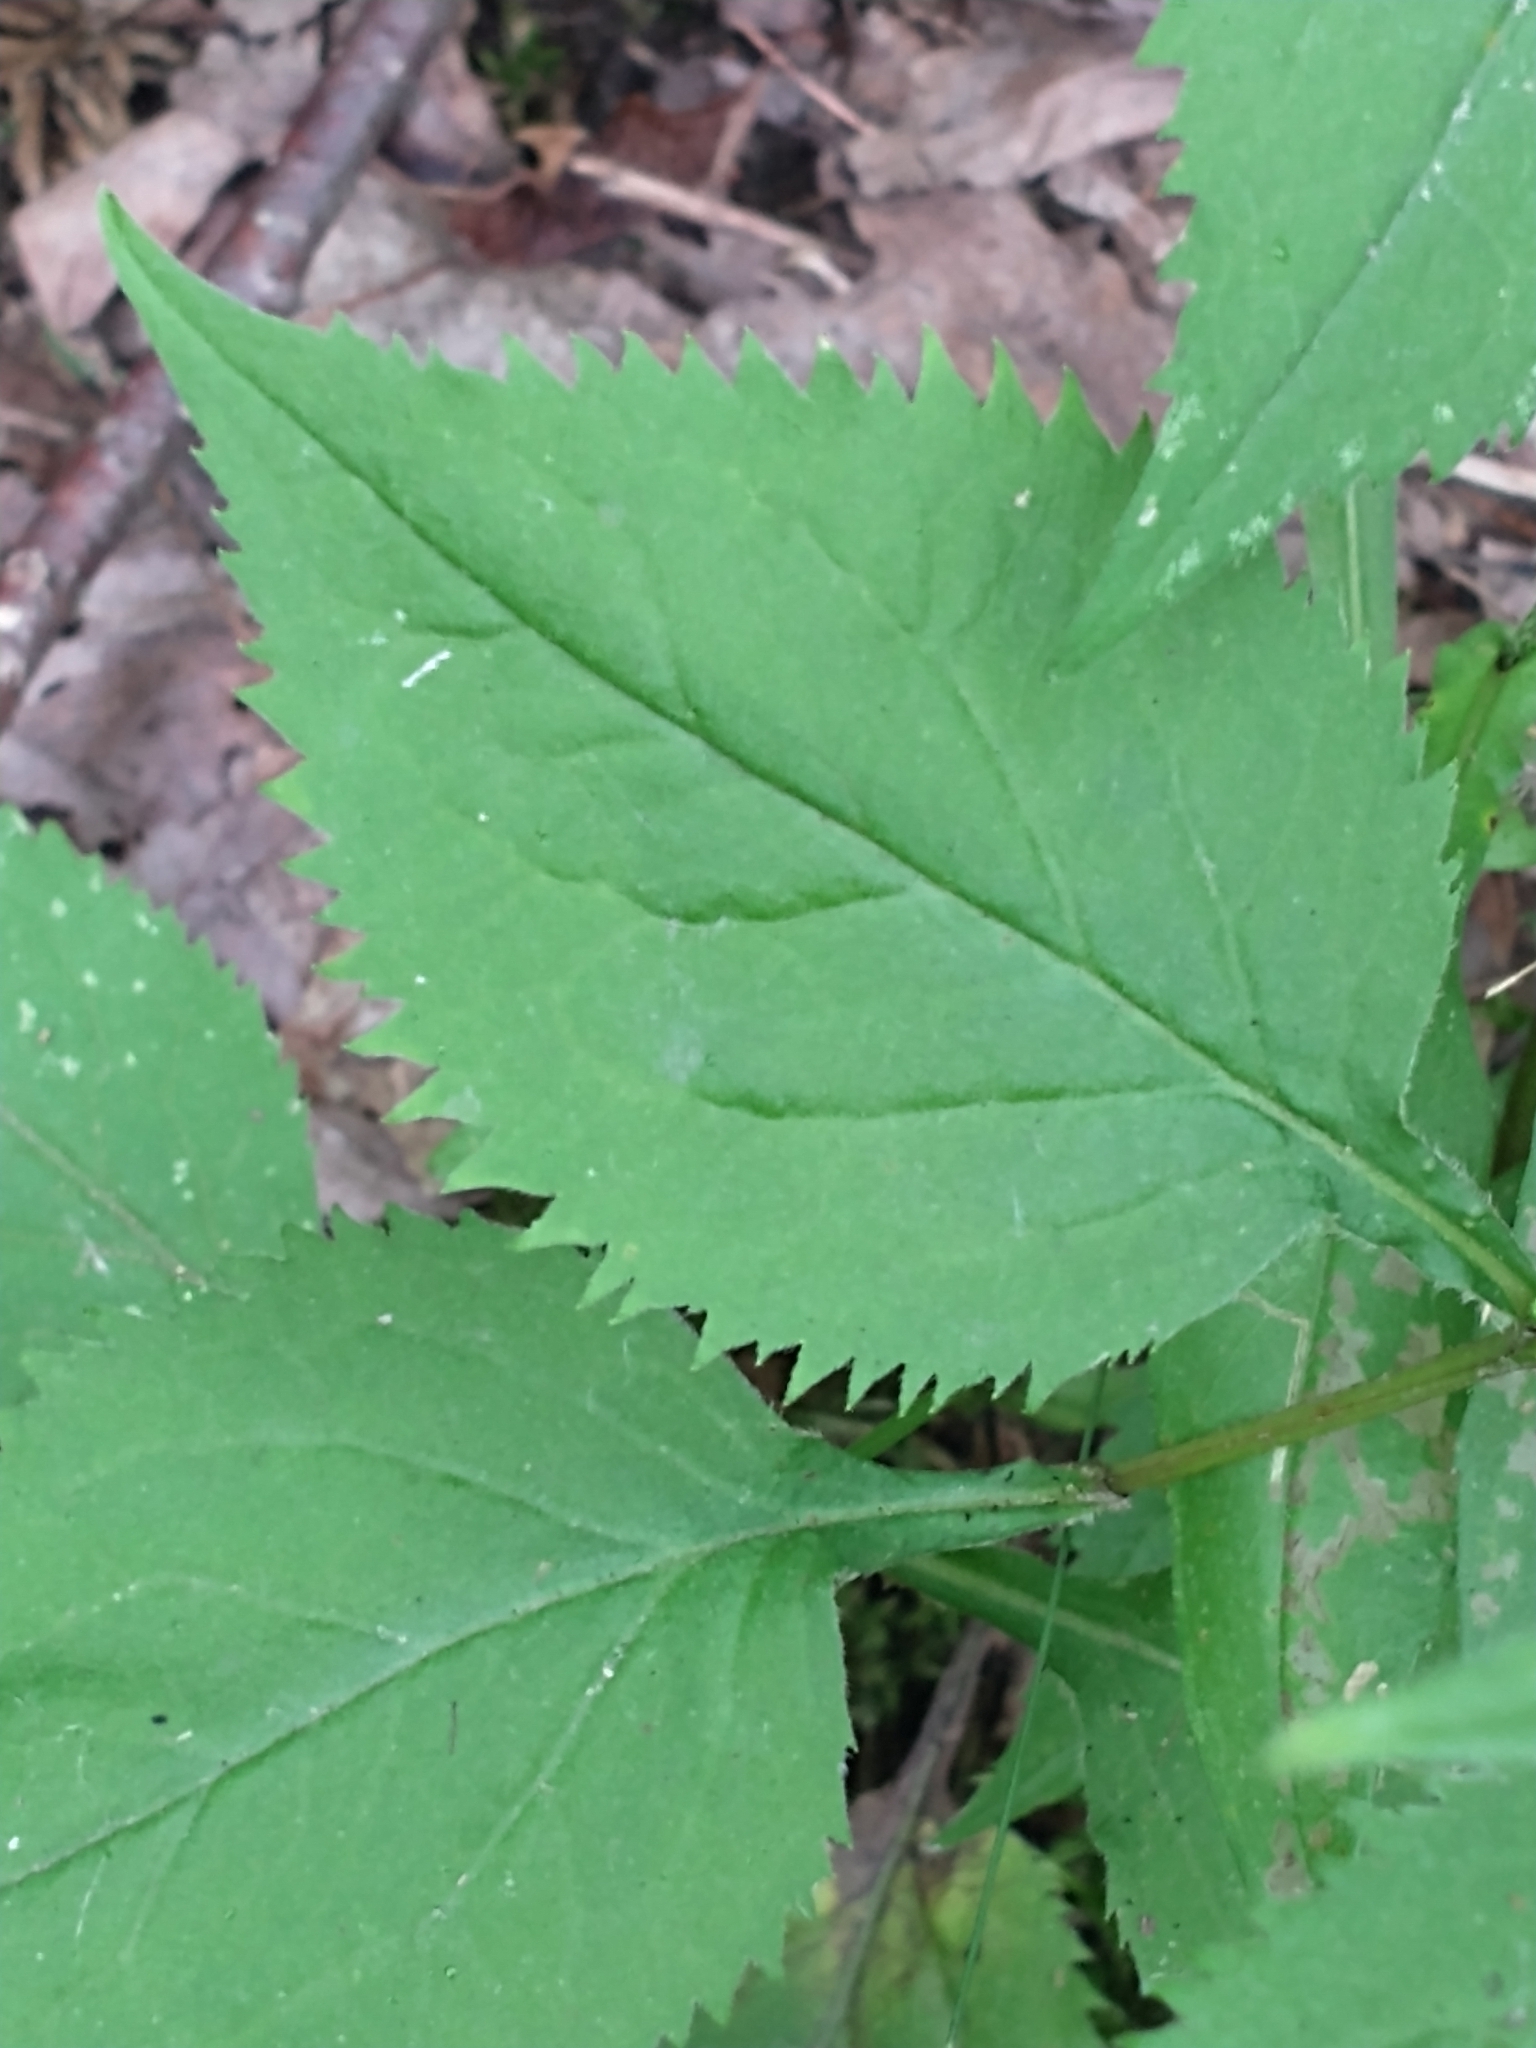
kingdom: Plantae
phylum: Tracheophyta
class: Magnoliopsida
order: Asterales
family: Asteraceae
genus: Solidago
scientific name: Solidago flexicaulis
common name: Zig-zag goldenrod
